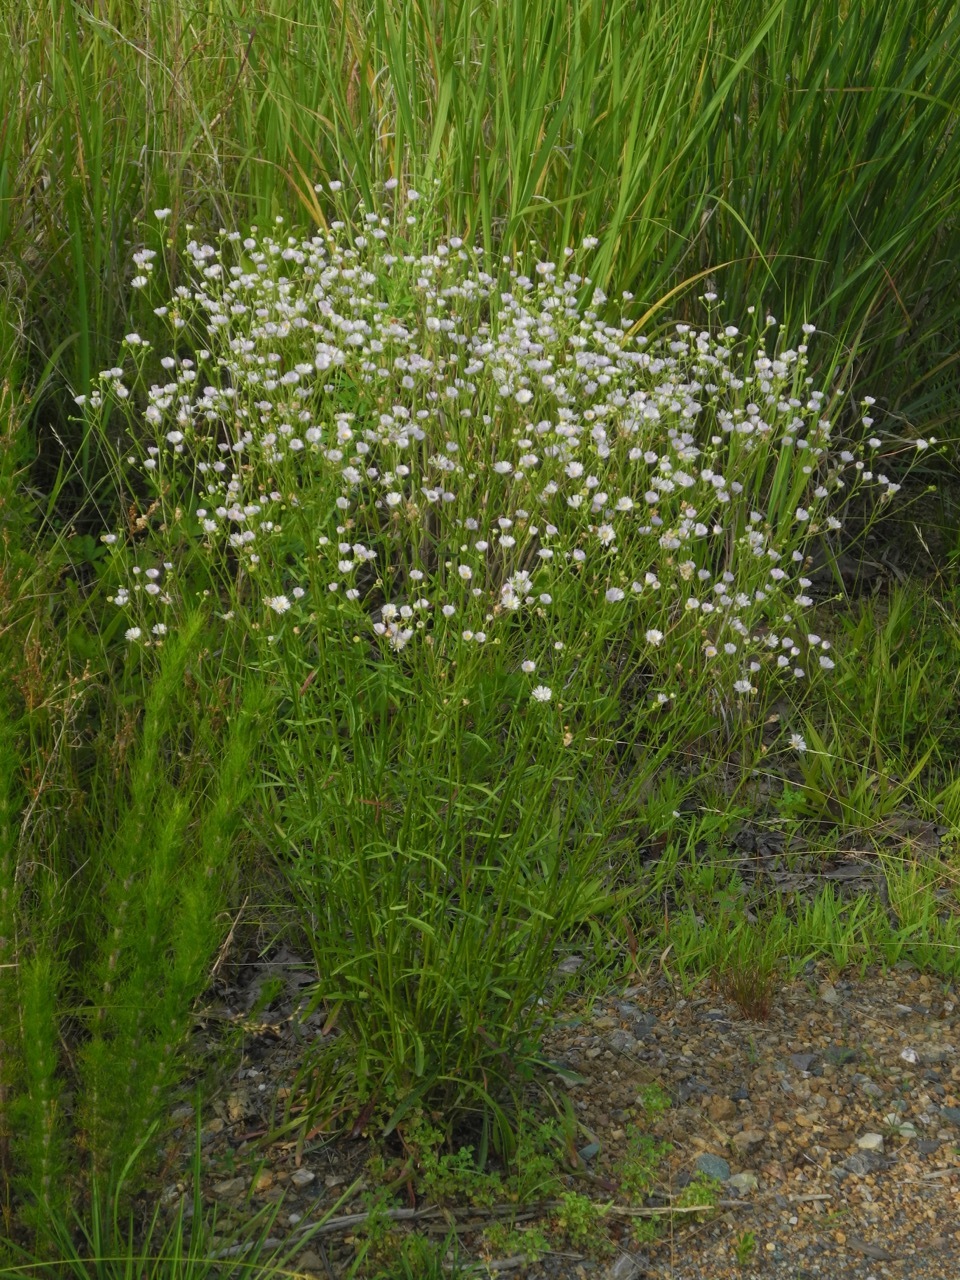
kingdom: Plantae
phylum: Tracheophyta
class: Magnoliopsida
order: Asterales
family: Asteraceae
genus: Erigeron
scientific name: Erigeron strigosus
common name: Common eastern fleabane
